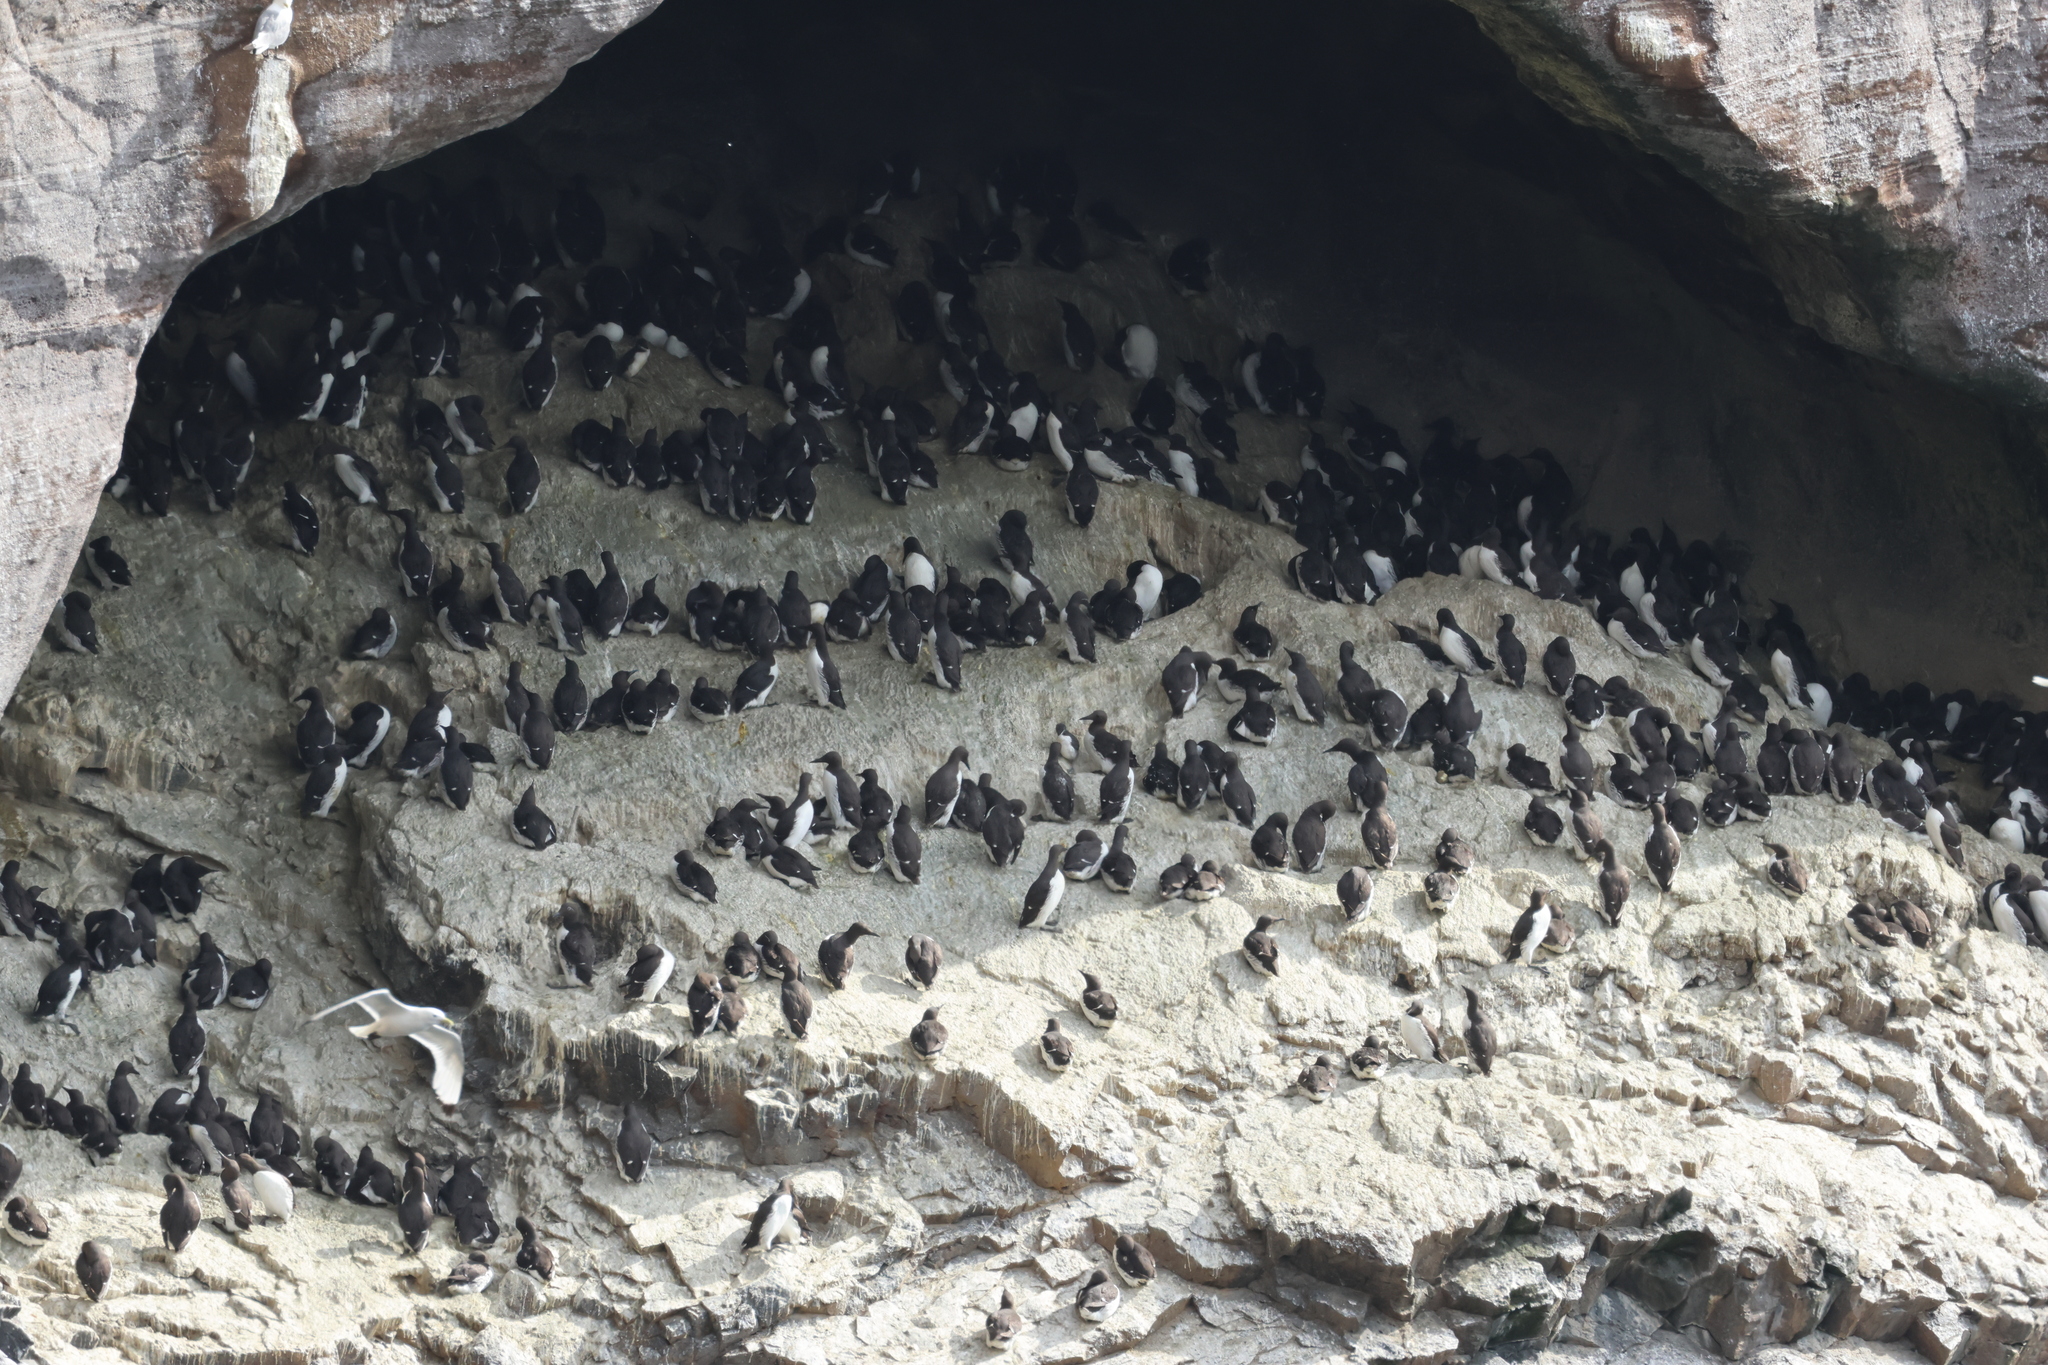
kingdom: Animalia
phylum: Chordata
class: Aves
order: Charadriiformes
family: Alcidae
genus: Uria
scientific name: Uria aalge
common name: Common murre
